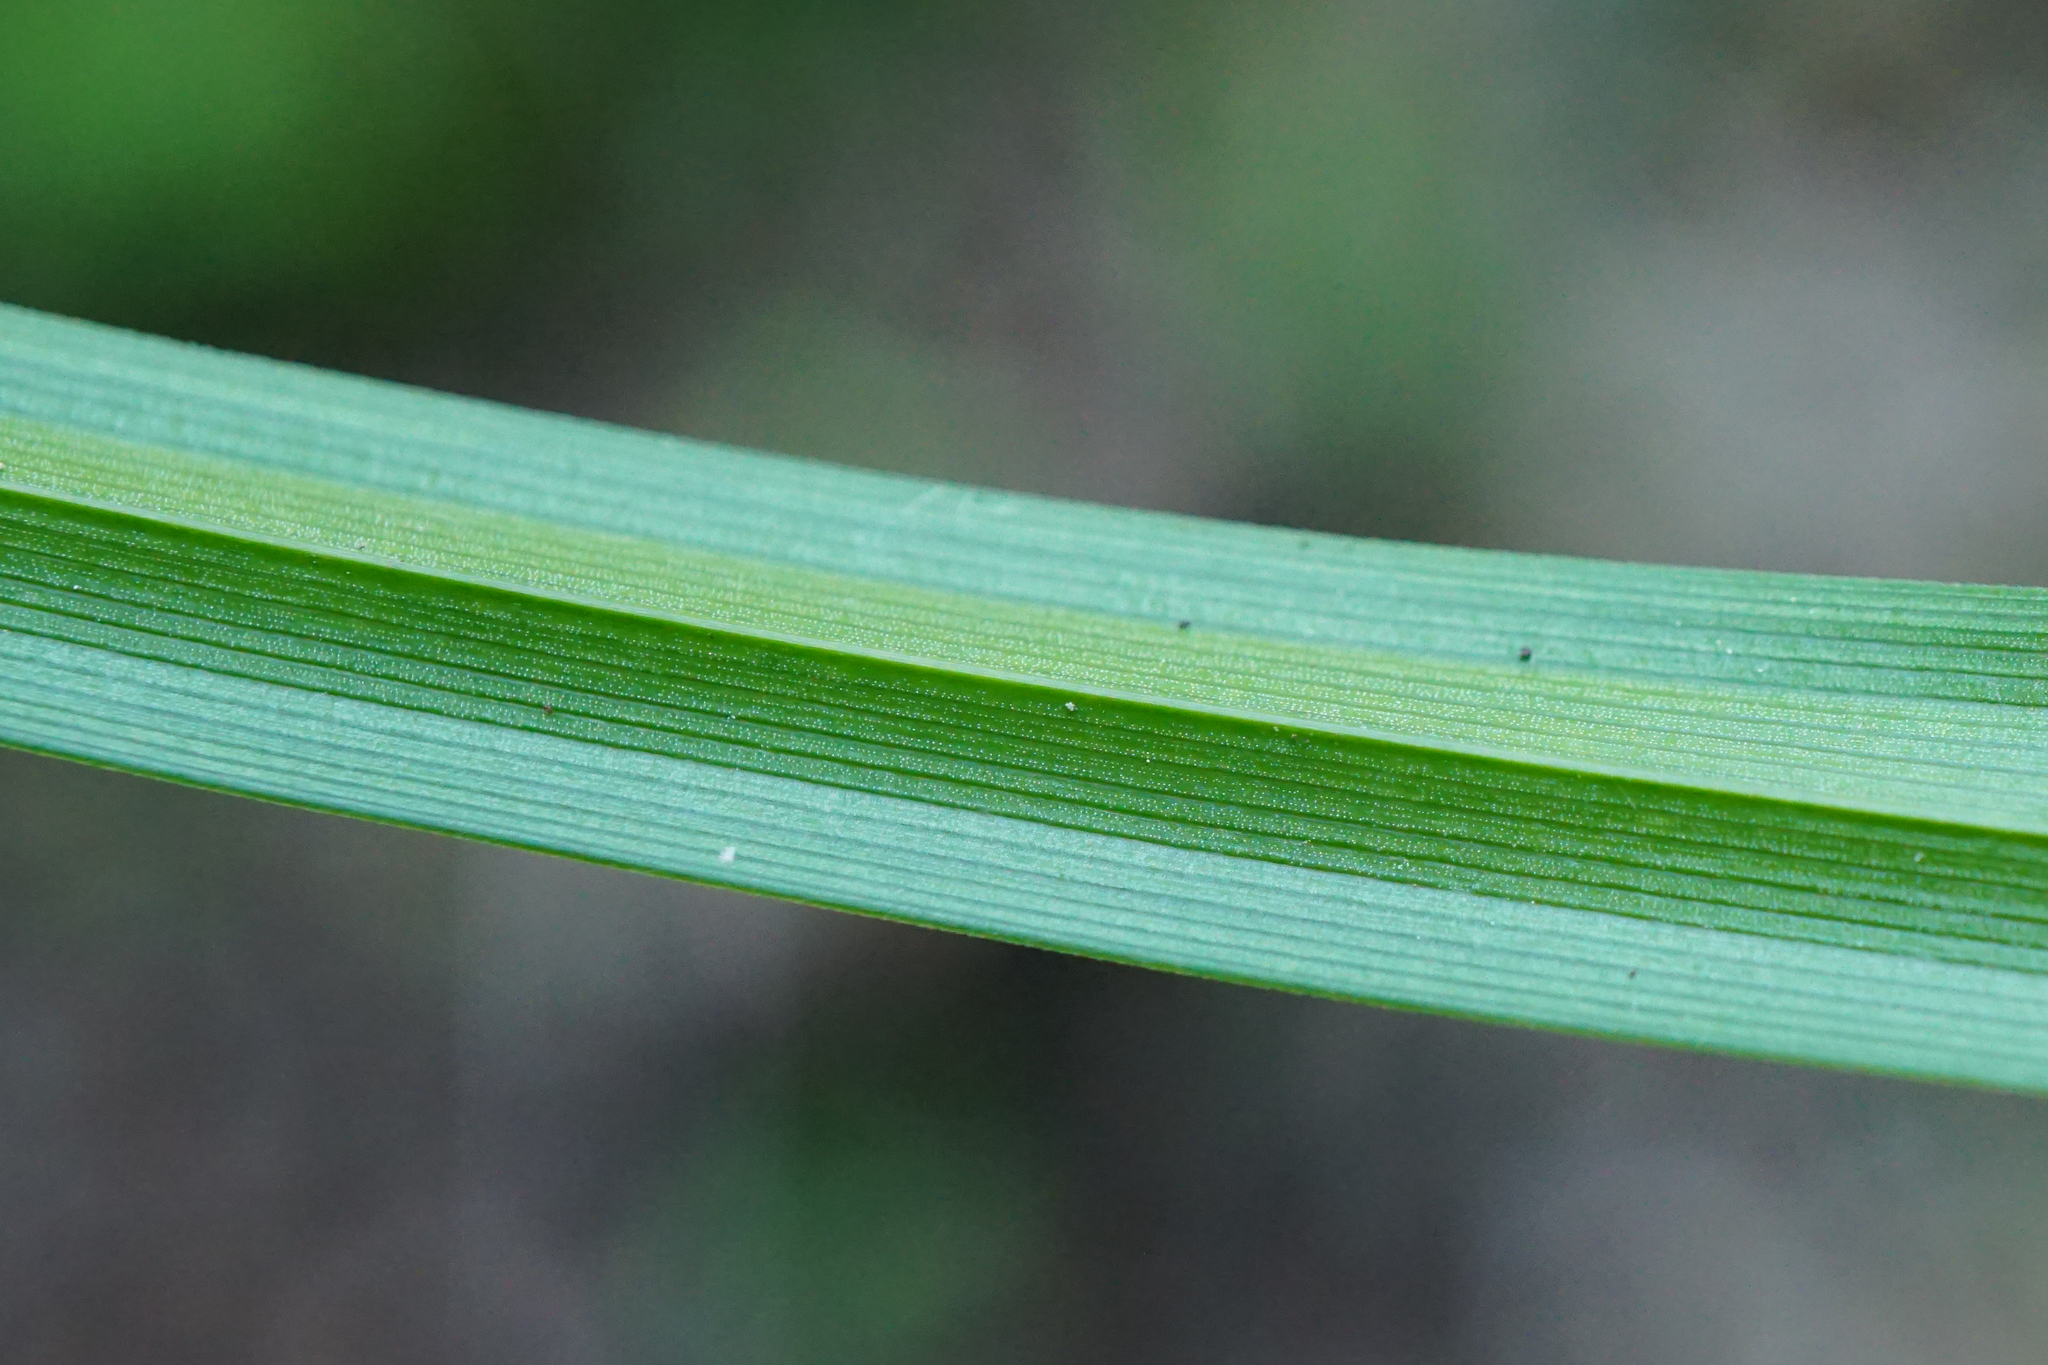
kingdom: Plantae
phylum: Tracheophyta
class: Liliopsida
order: Poales
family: Cyperaceae
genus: Carex
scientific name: Carex sylvatica
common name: Wood-sedge
